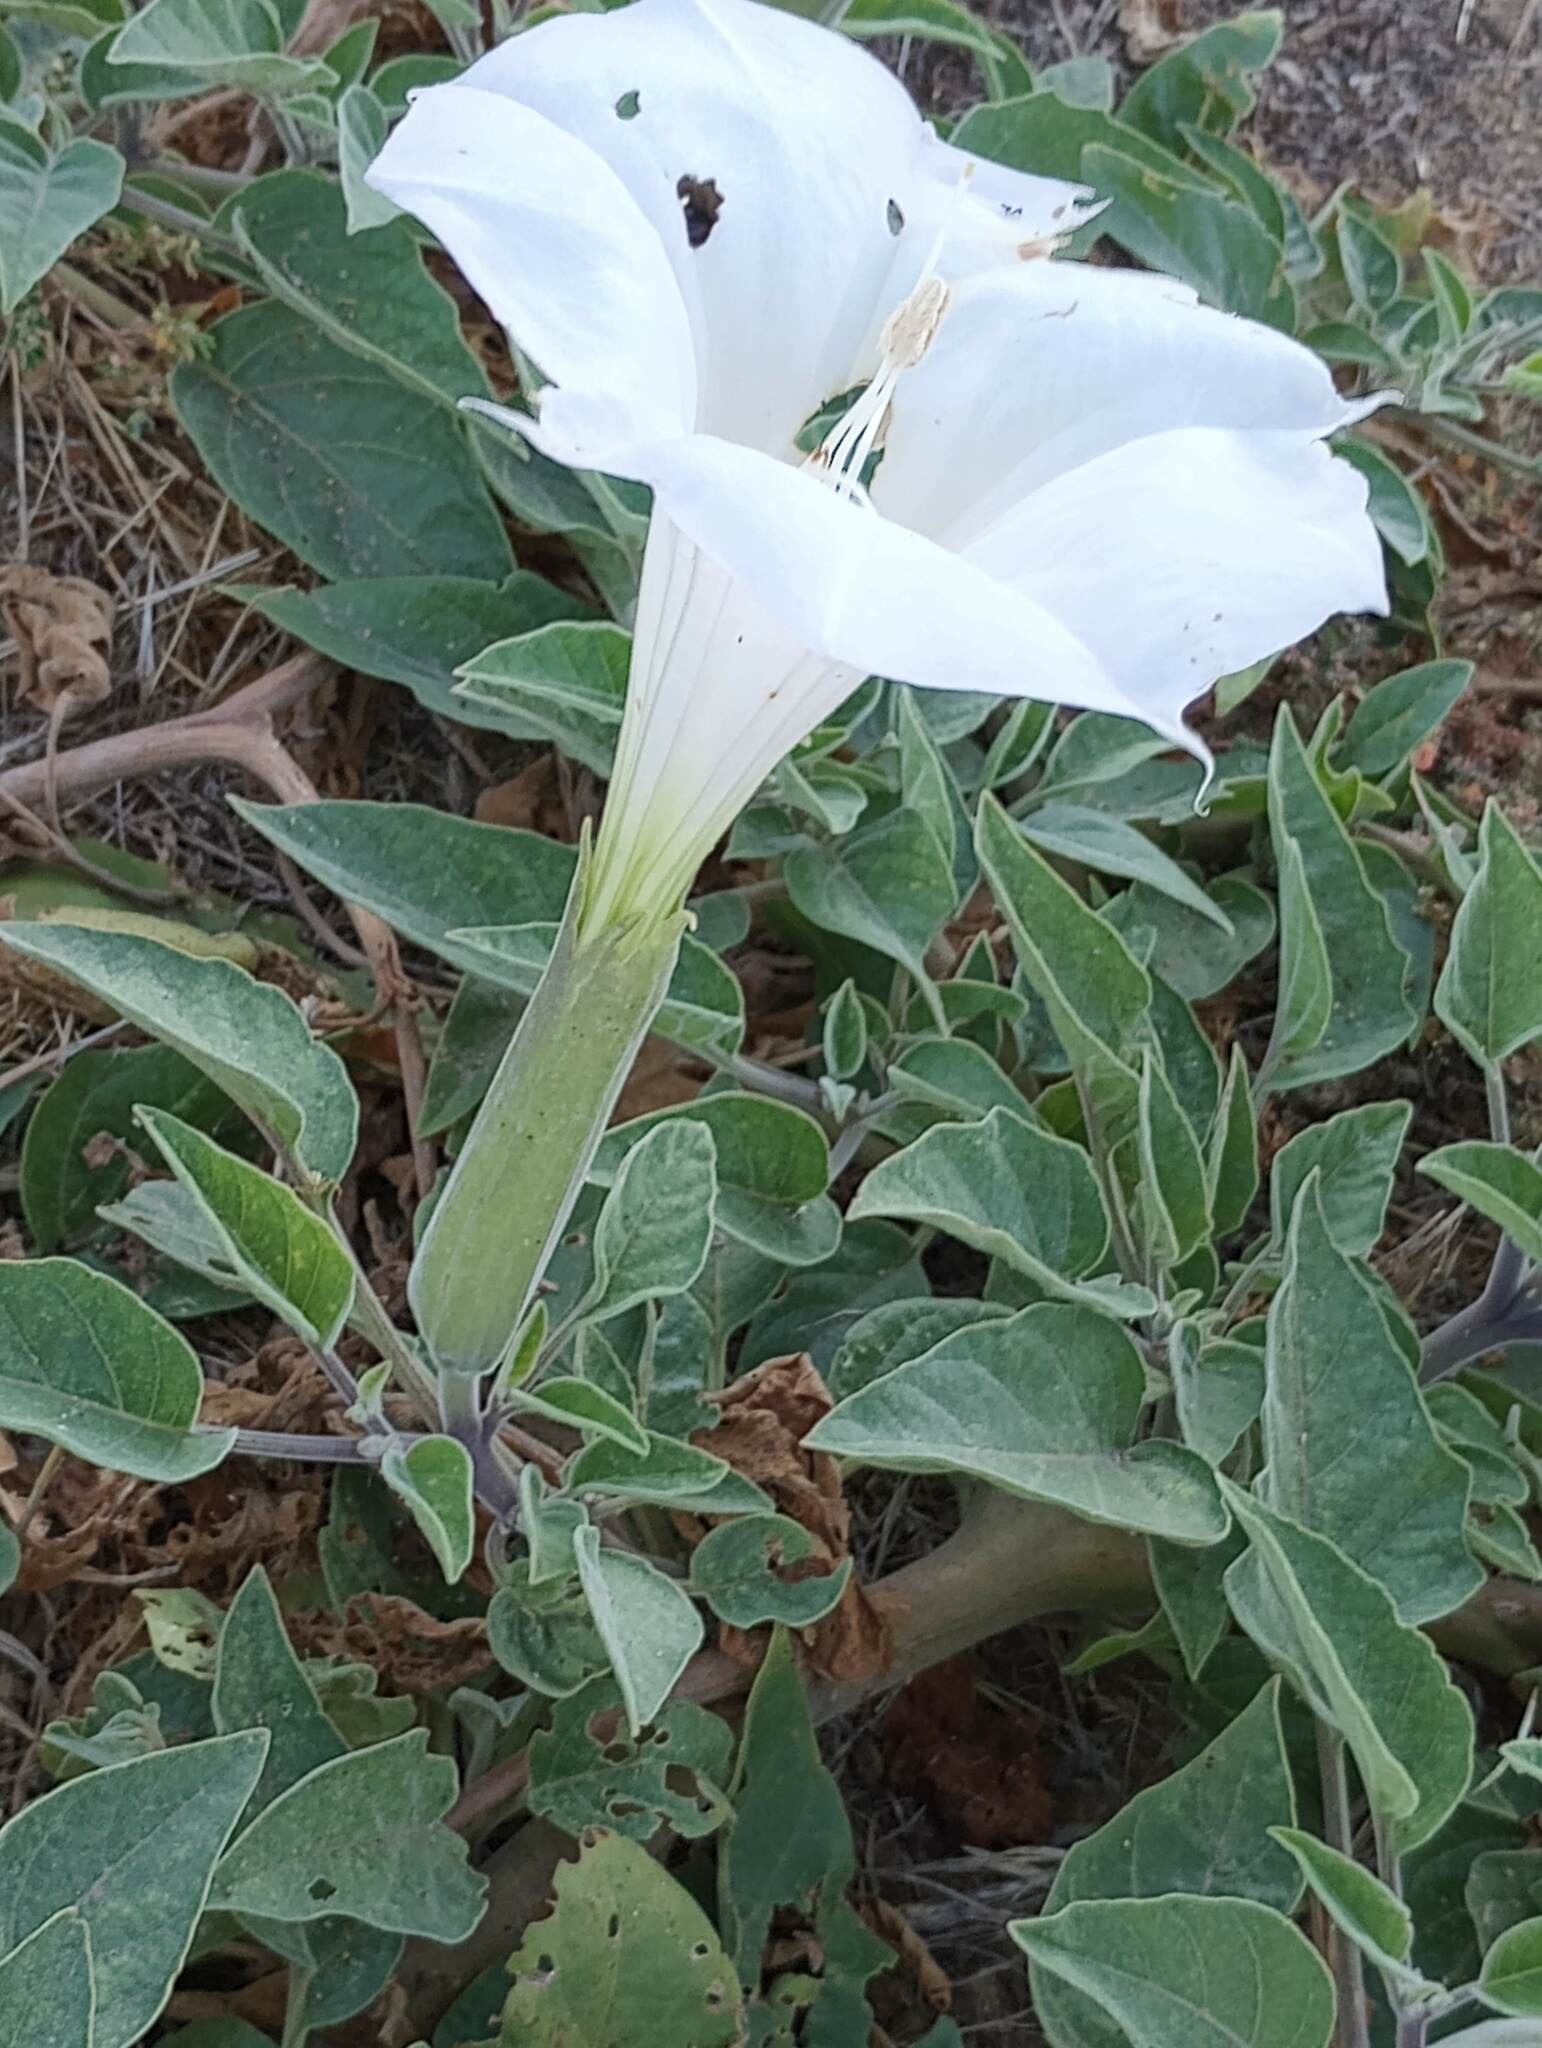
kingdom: Plantae
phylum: Tracheophyta
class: Magnoliopsida
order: Solanales
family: Solanaceae
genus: Datura
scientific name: Datura wrightii
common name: Sacred thorn-apple
